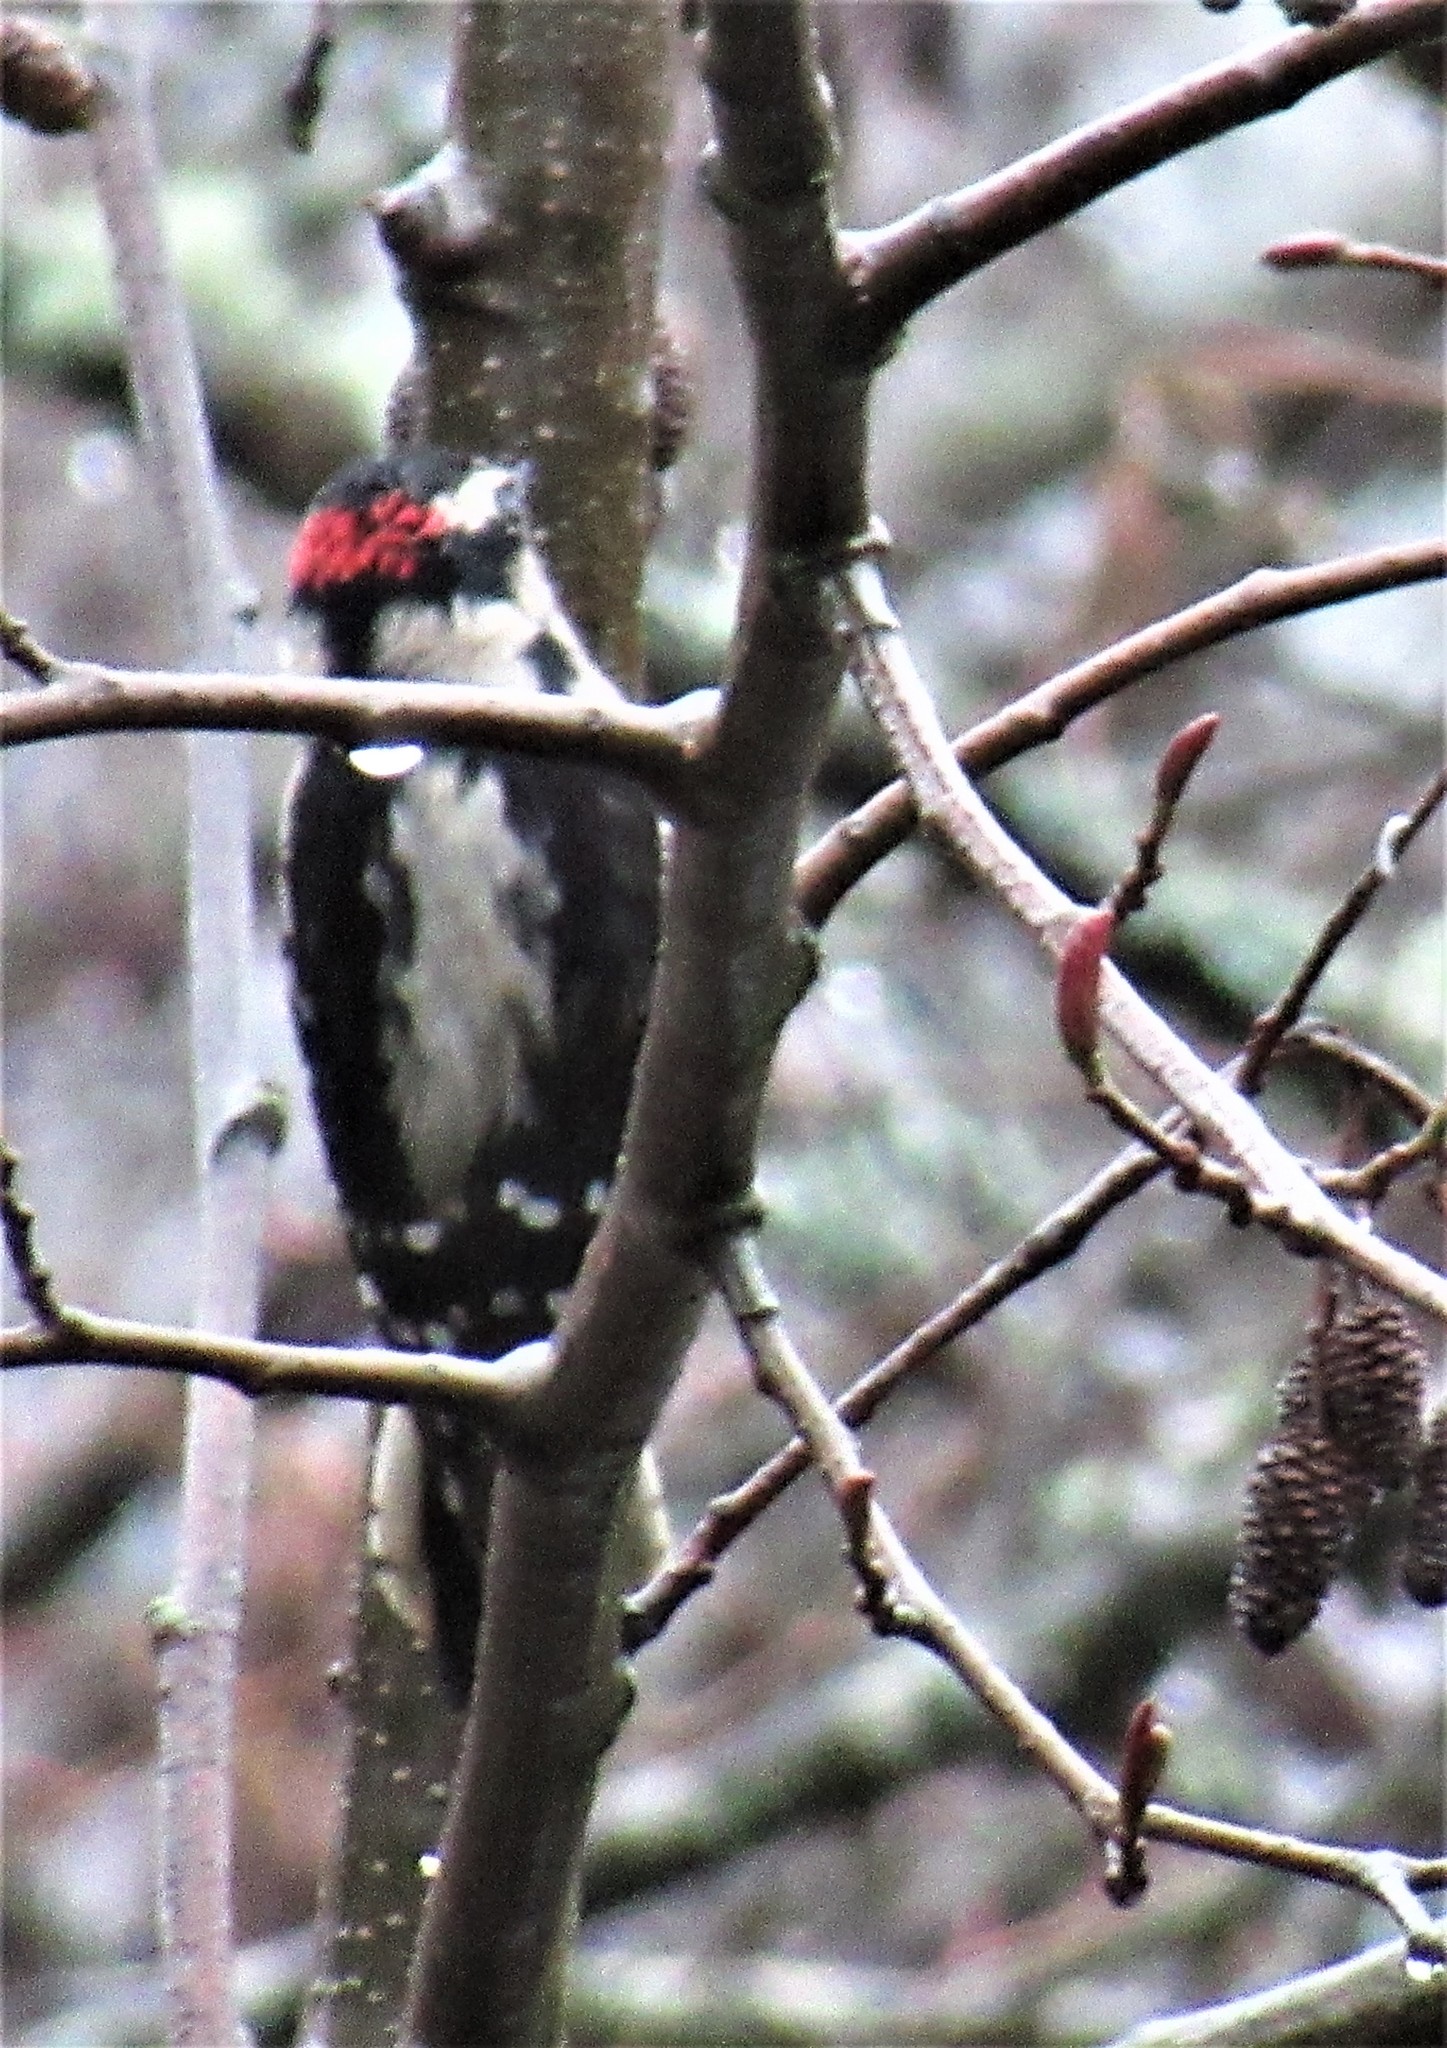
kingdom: Animalia
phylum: Chordata
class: Aves
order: Piciformes
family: Picidae
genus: Dryobates
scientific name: Dryobates pubescens
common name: Downy woodpecker
